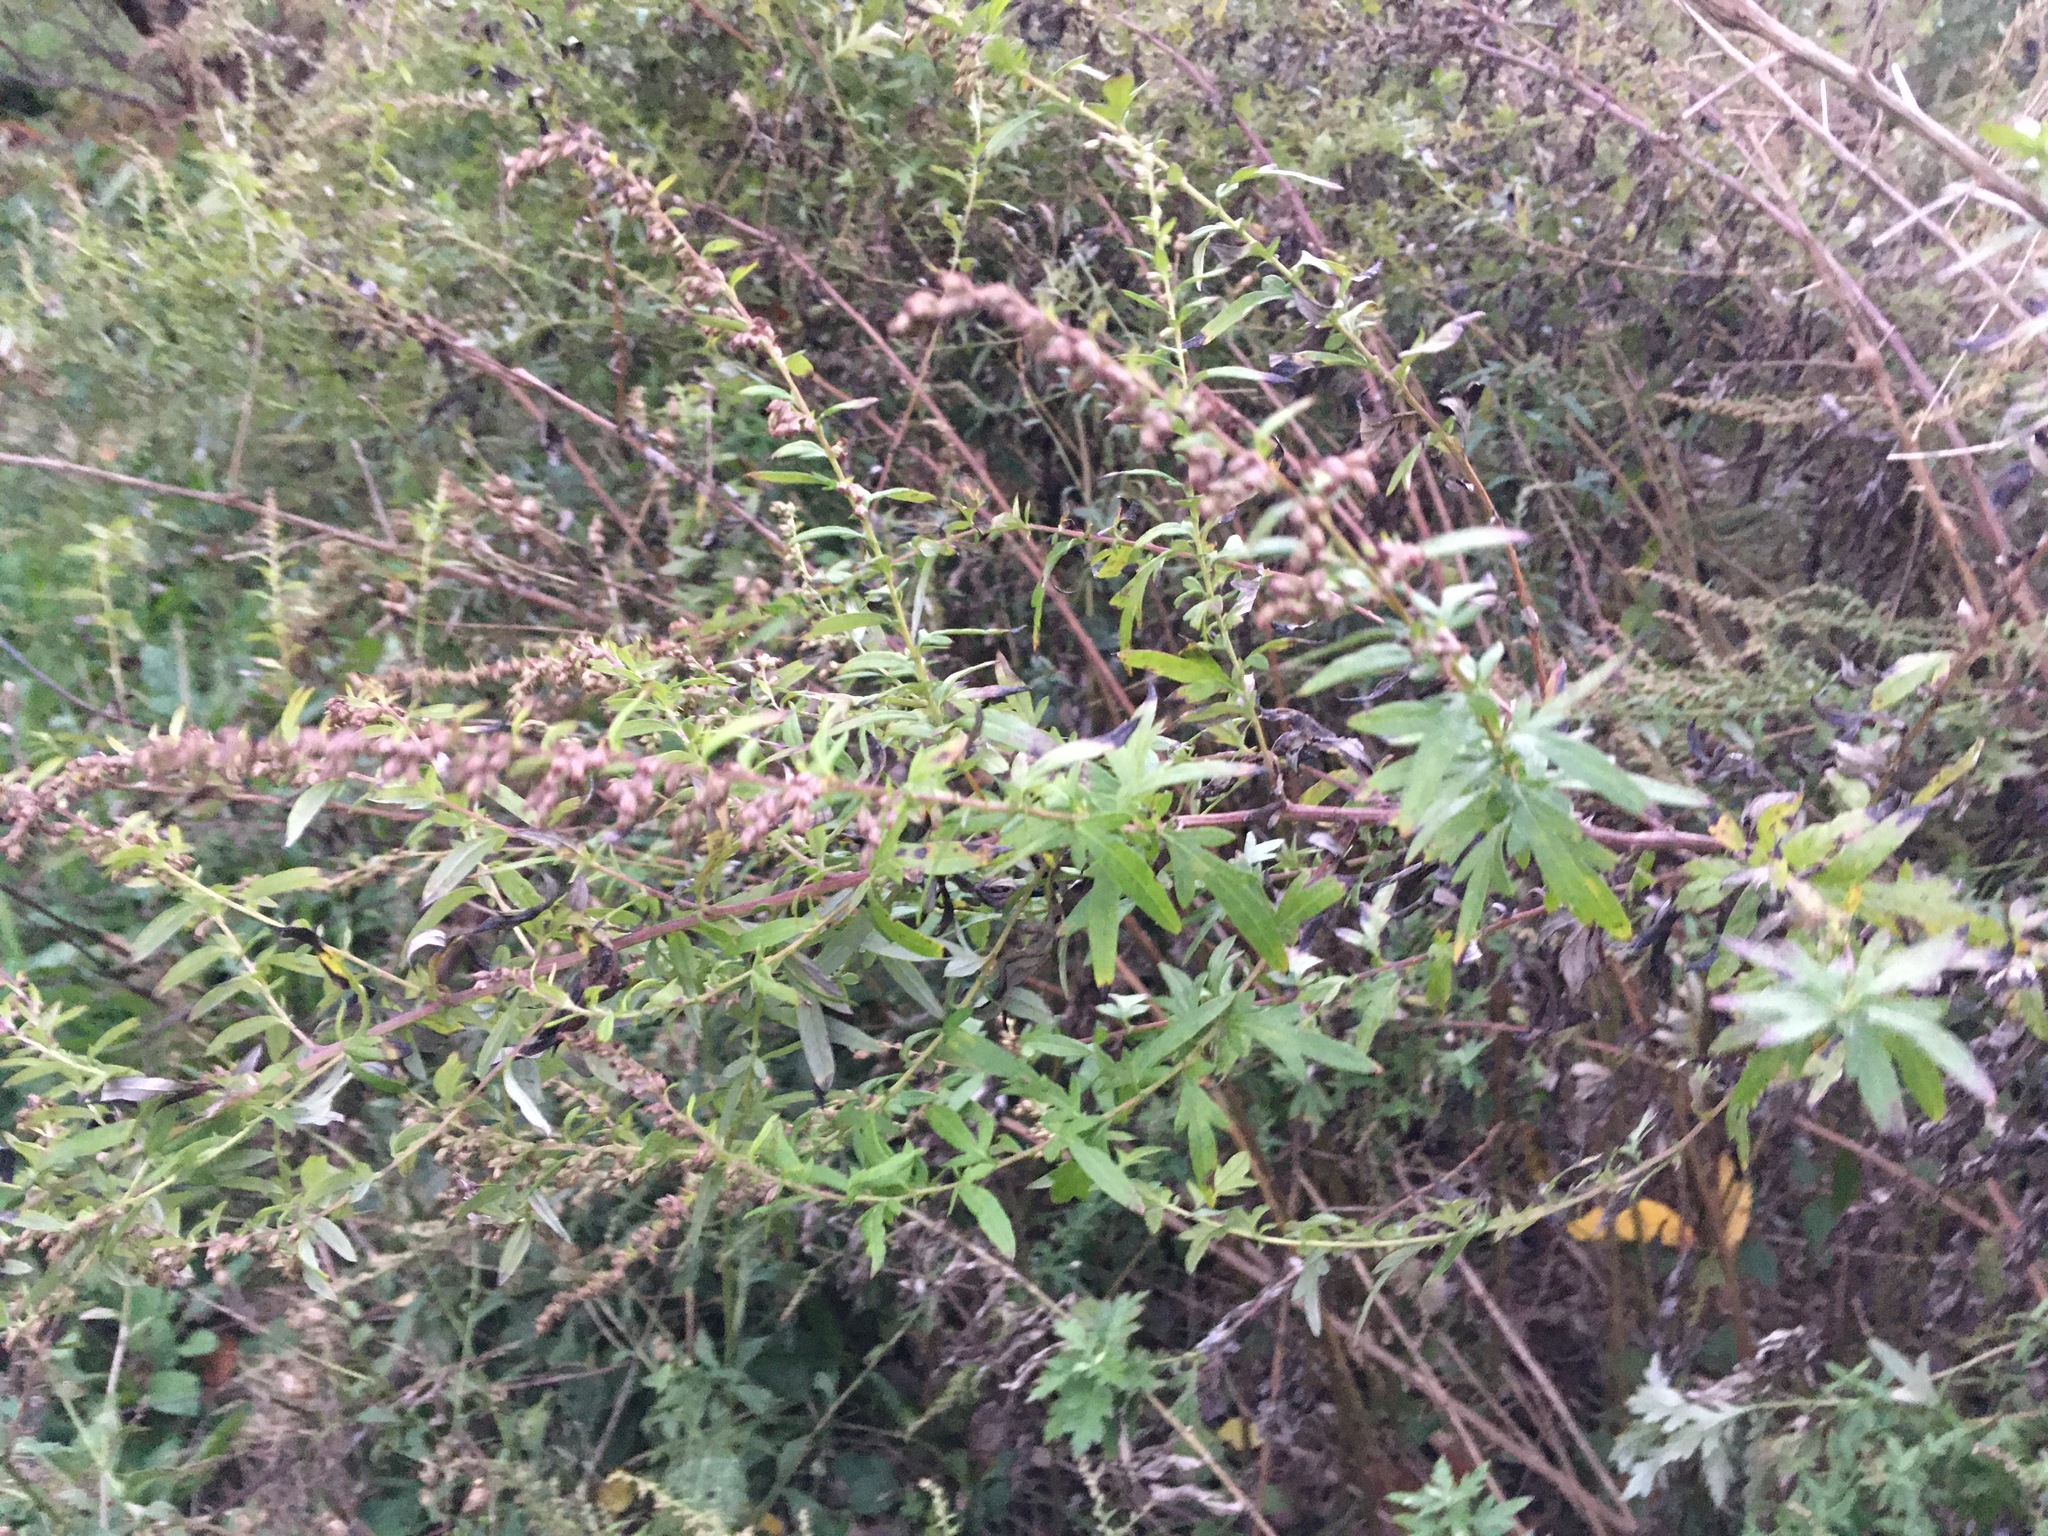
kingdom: Plantae
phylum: Tracheophyta
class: Magnoliopsida
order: Asterales
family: Asteraceae
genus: Artemisia
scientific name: Artemisia vulgaris
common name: Mugwort
